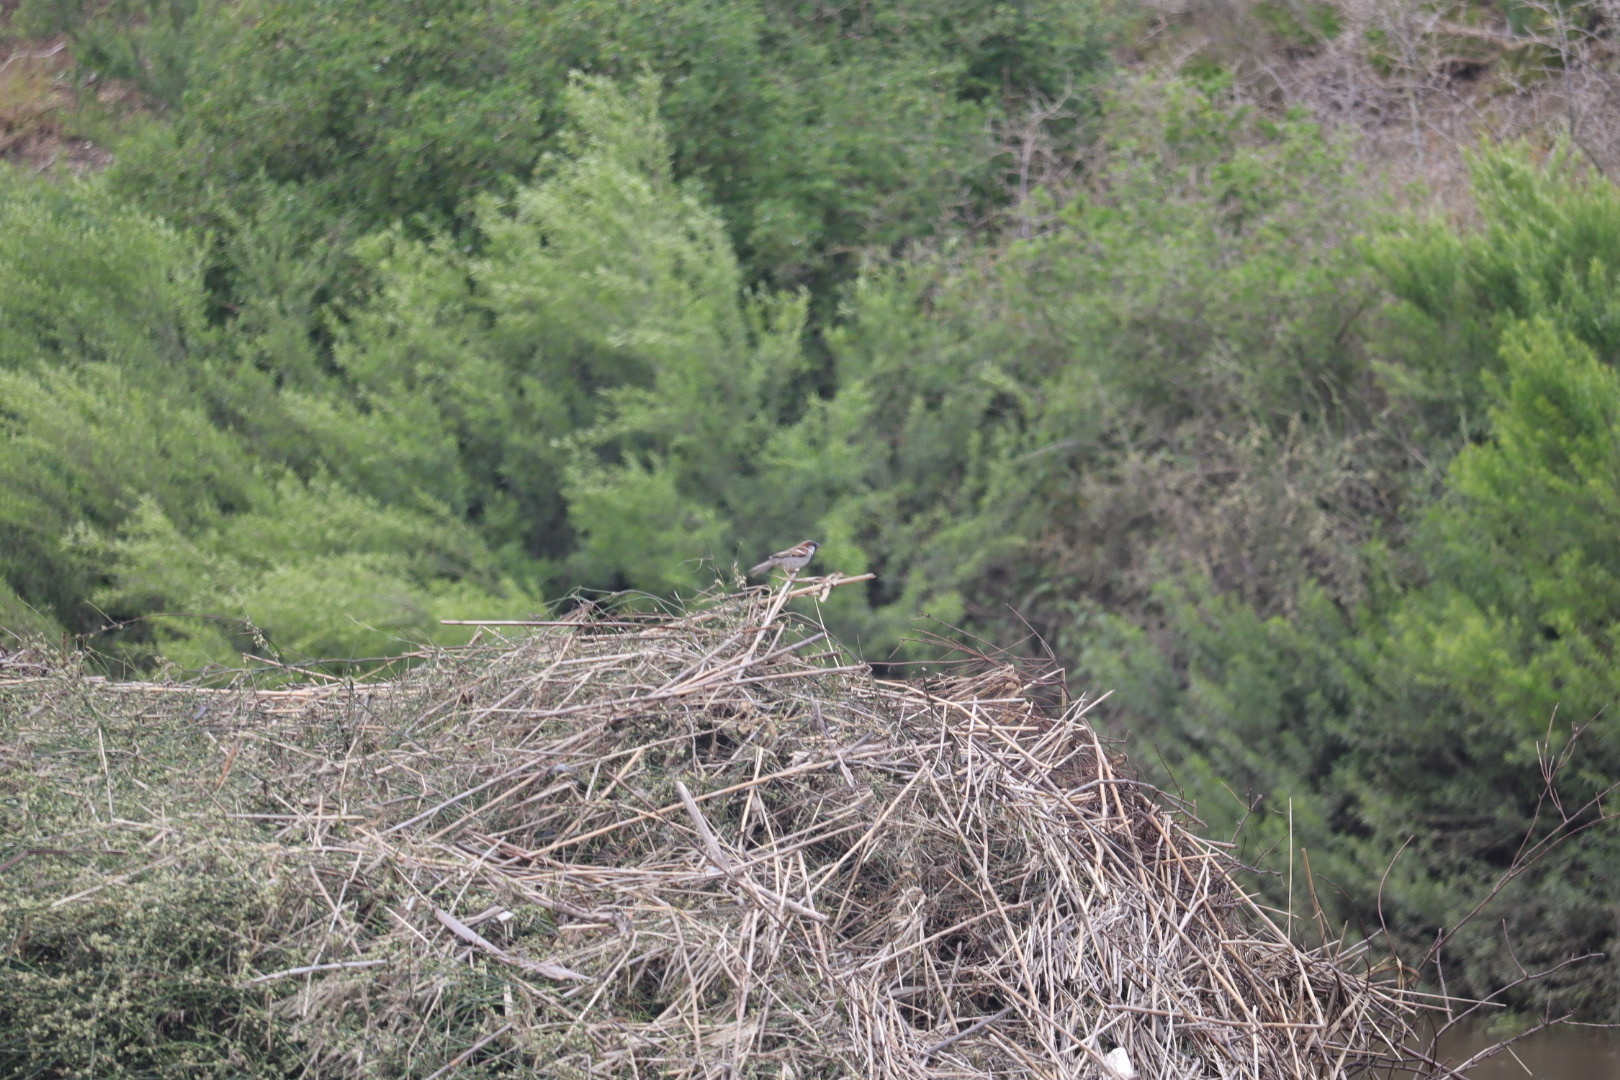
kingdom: Animalia
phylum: Chordata
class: Aves
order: Passeriformes
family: Passeridae
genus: Passer
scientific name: Passer domesticus
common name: House sparrow
